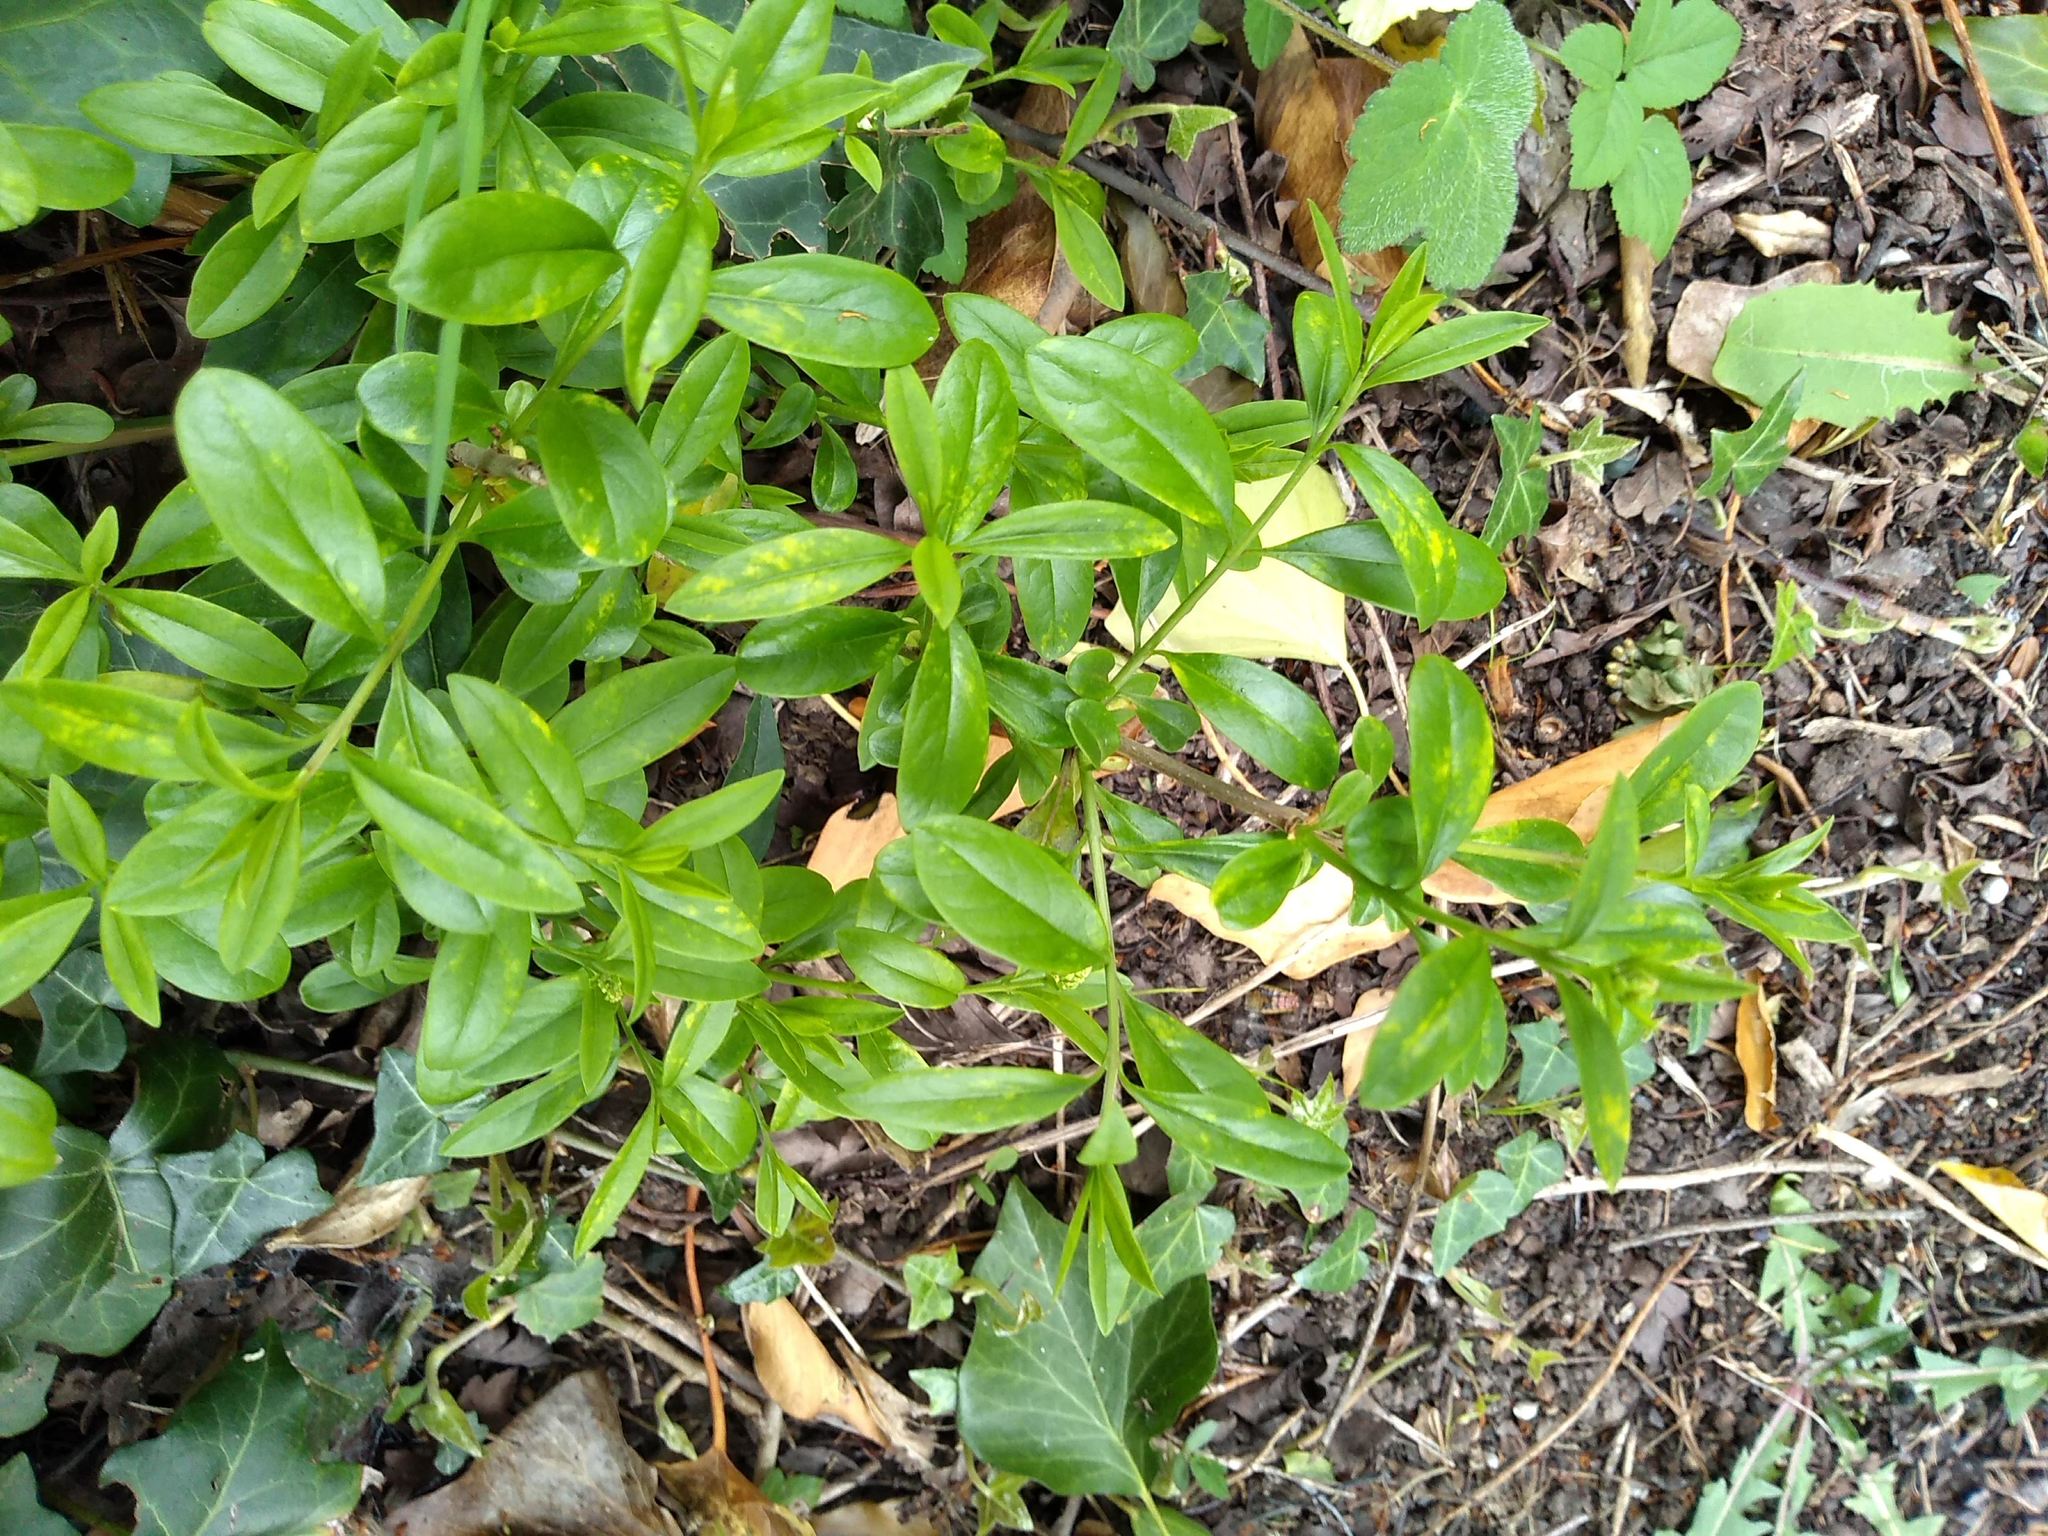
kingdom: Plantae
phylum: Tracheophyta
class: Magnoliopsida
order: Lamiales
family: Oleaceae
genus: Ligustrum
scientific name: Ligustrum vulgare
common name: Wild privet
